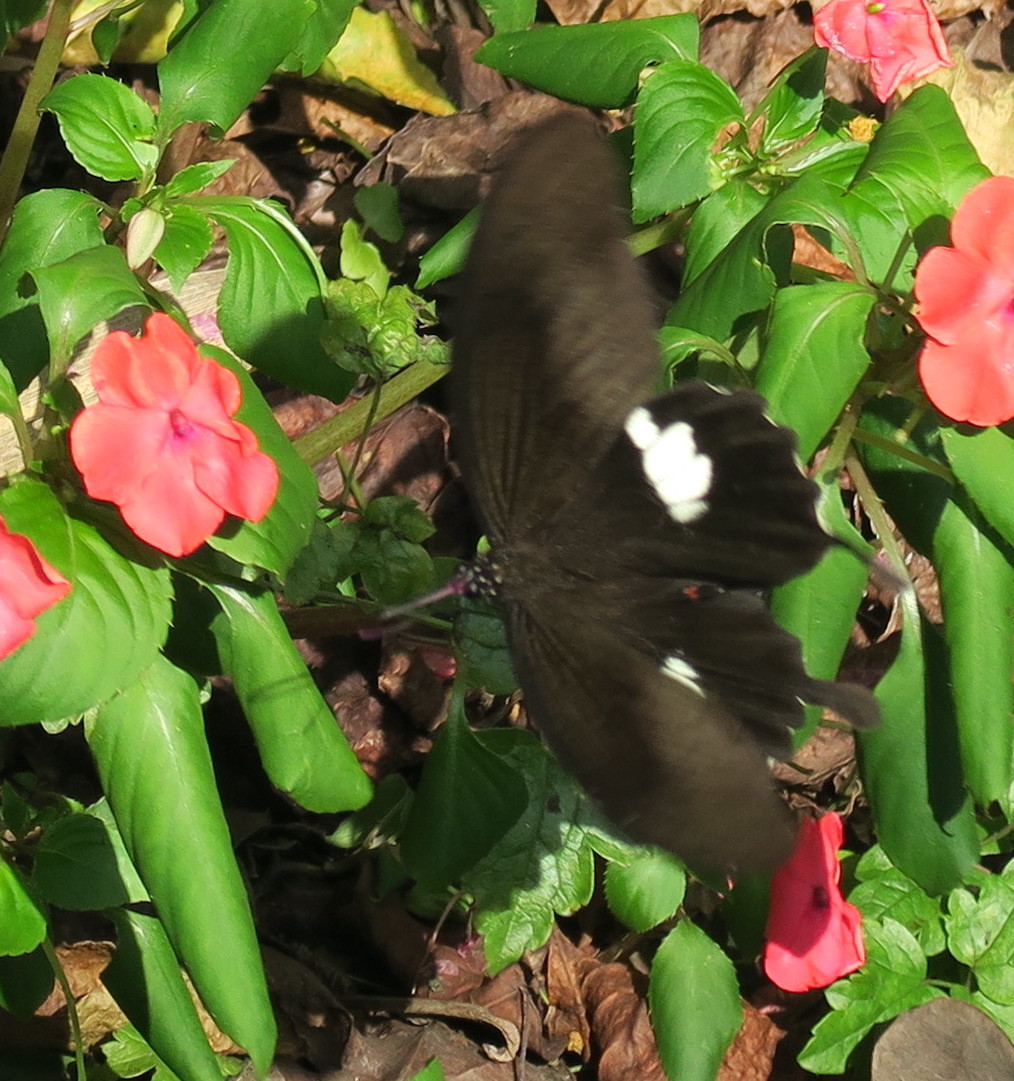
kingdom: Animalia
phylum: Arthropoda
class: Insecta
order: Lepidoptera
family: Papilionidae
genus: Papilio
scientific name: Papilio helenus
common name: Red helen
